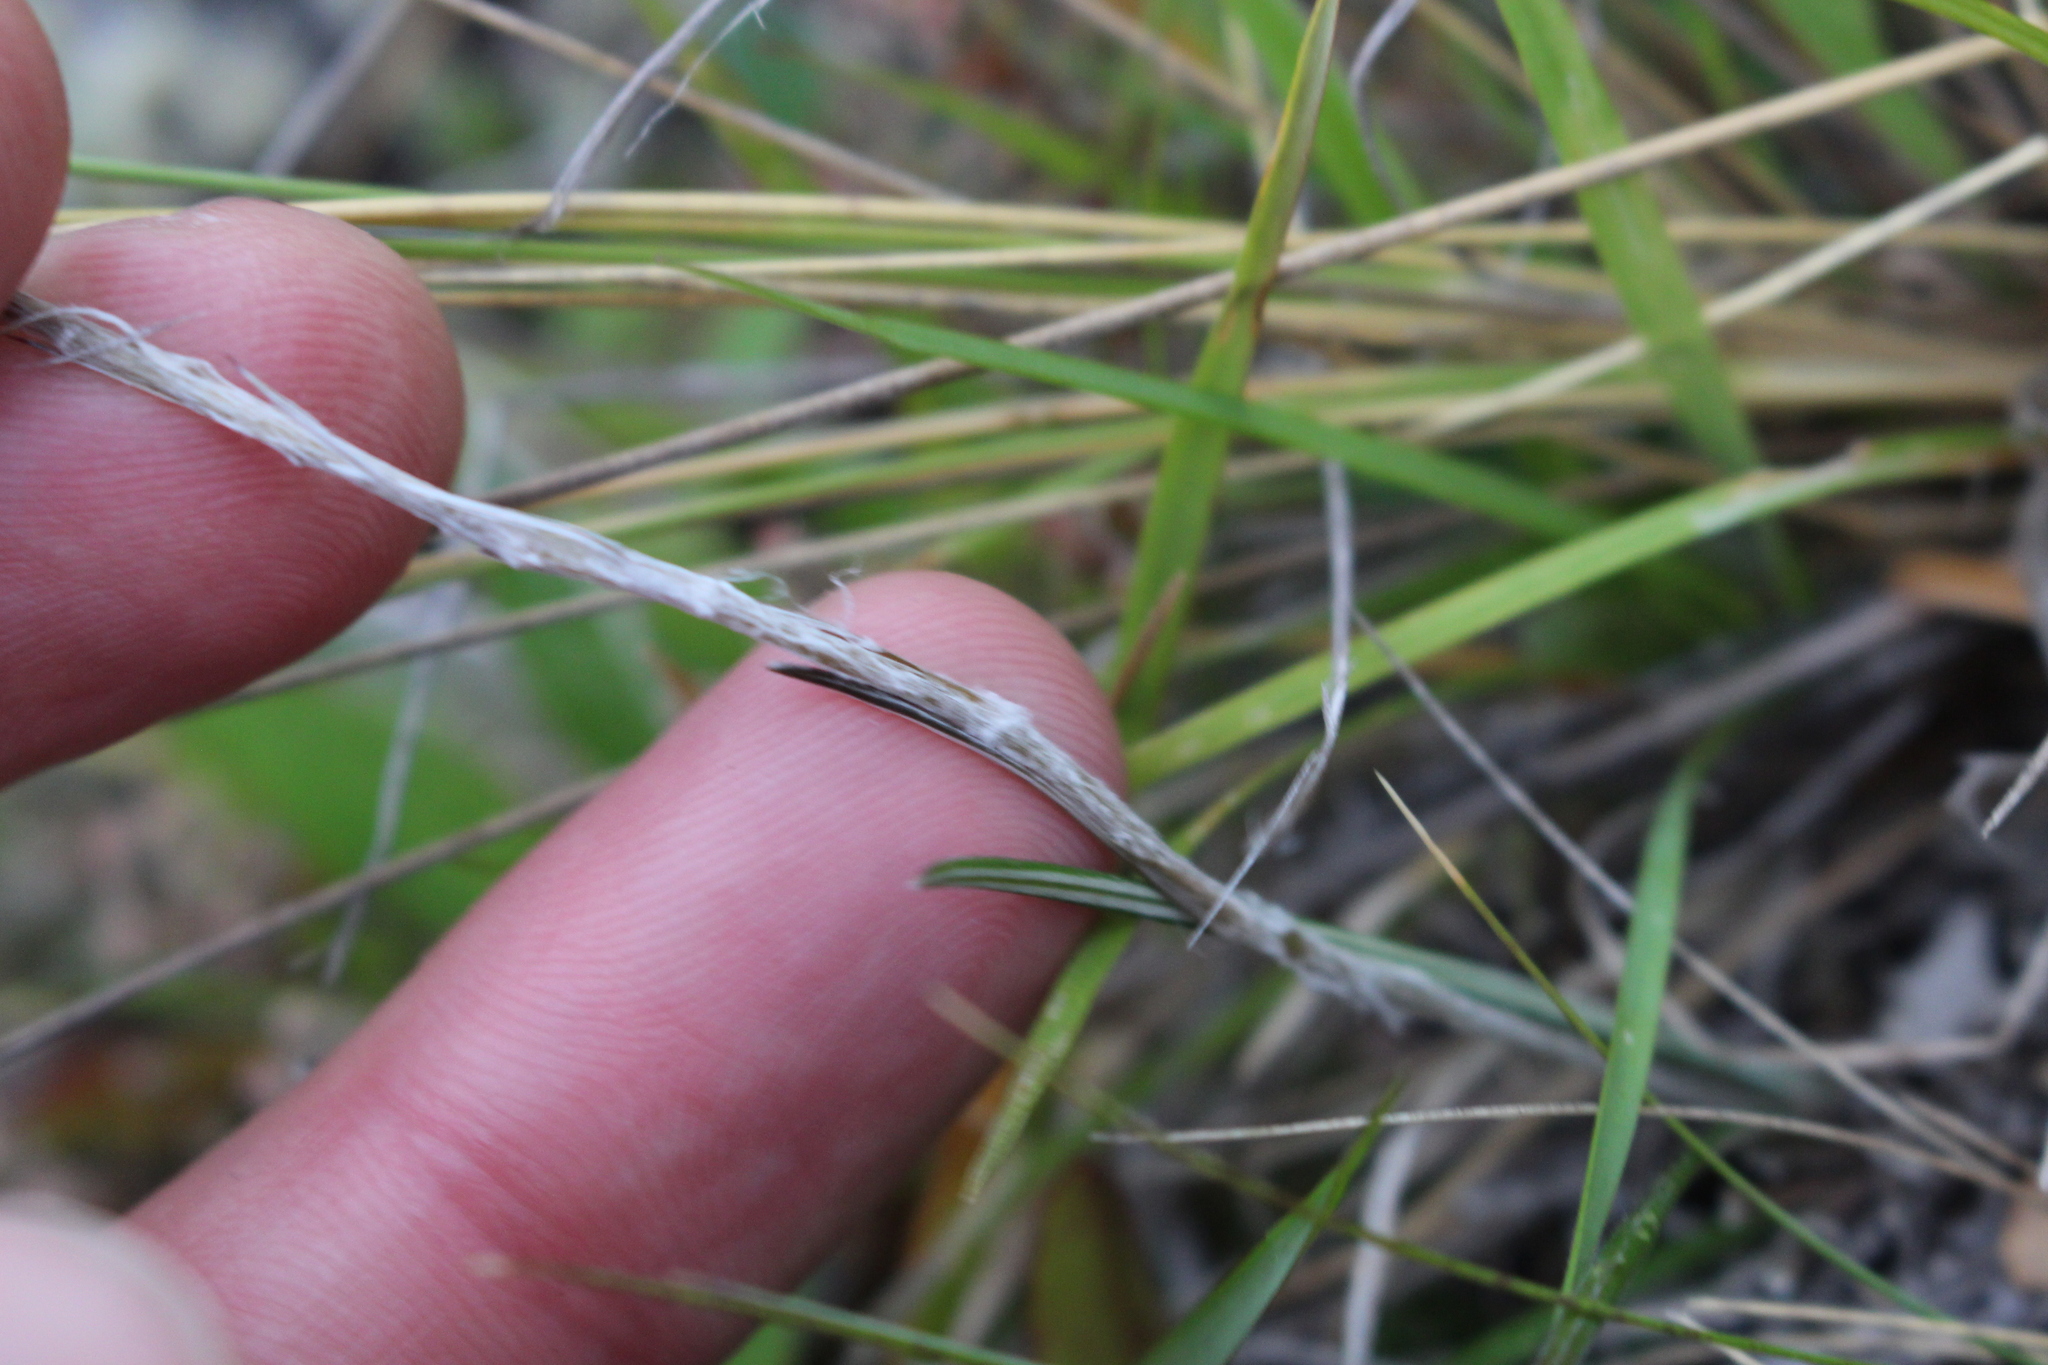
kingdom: Plantae
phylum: Tracheophyta
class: Magnoliopsida
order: Asterales
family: Asteraceae
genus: Celmisia
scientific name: Celmisia gracilenta
